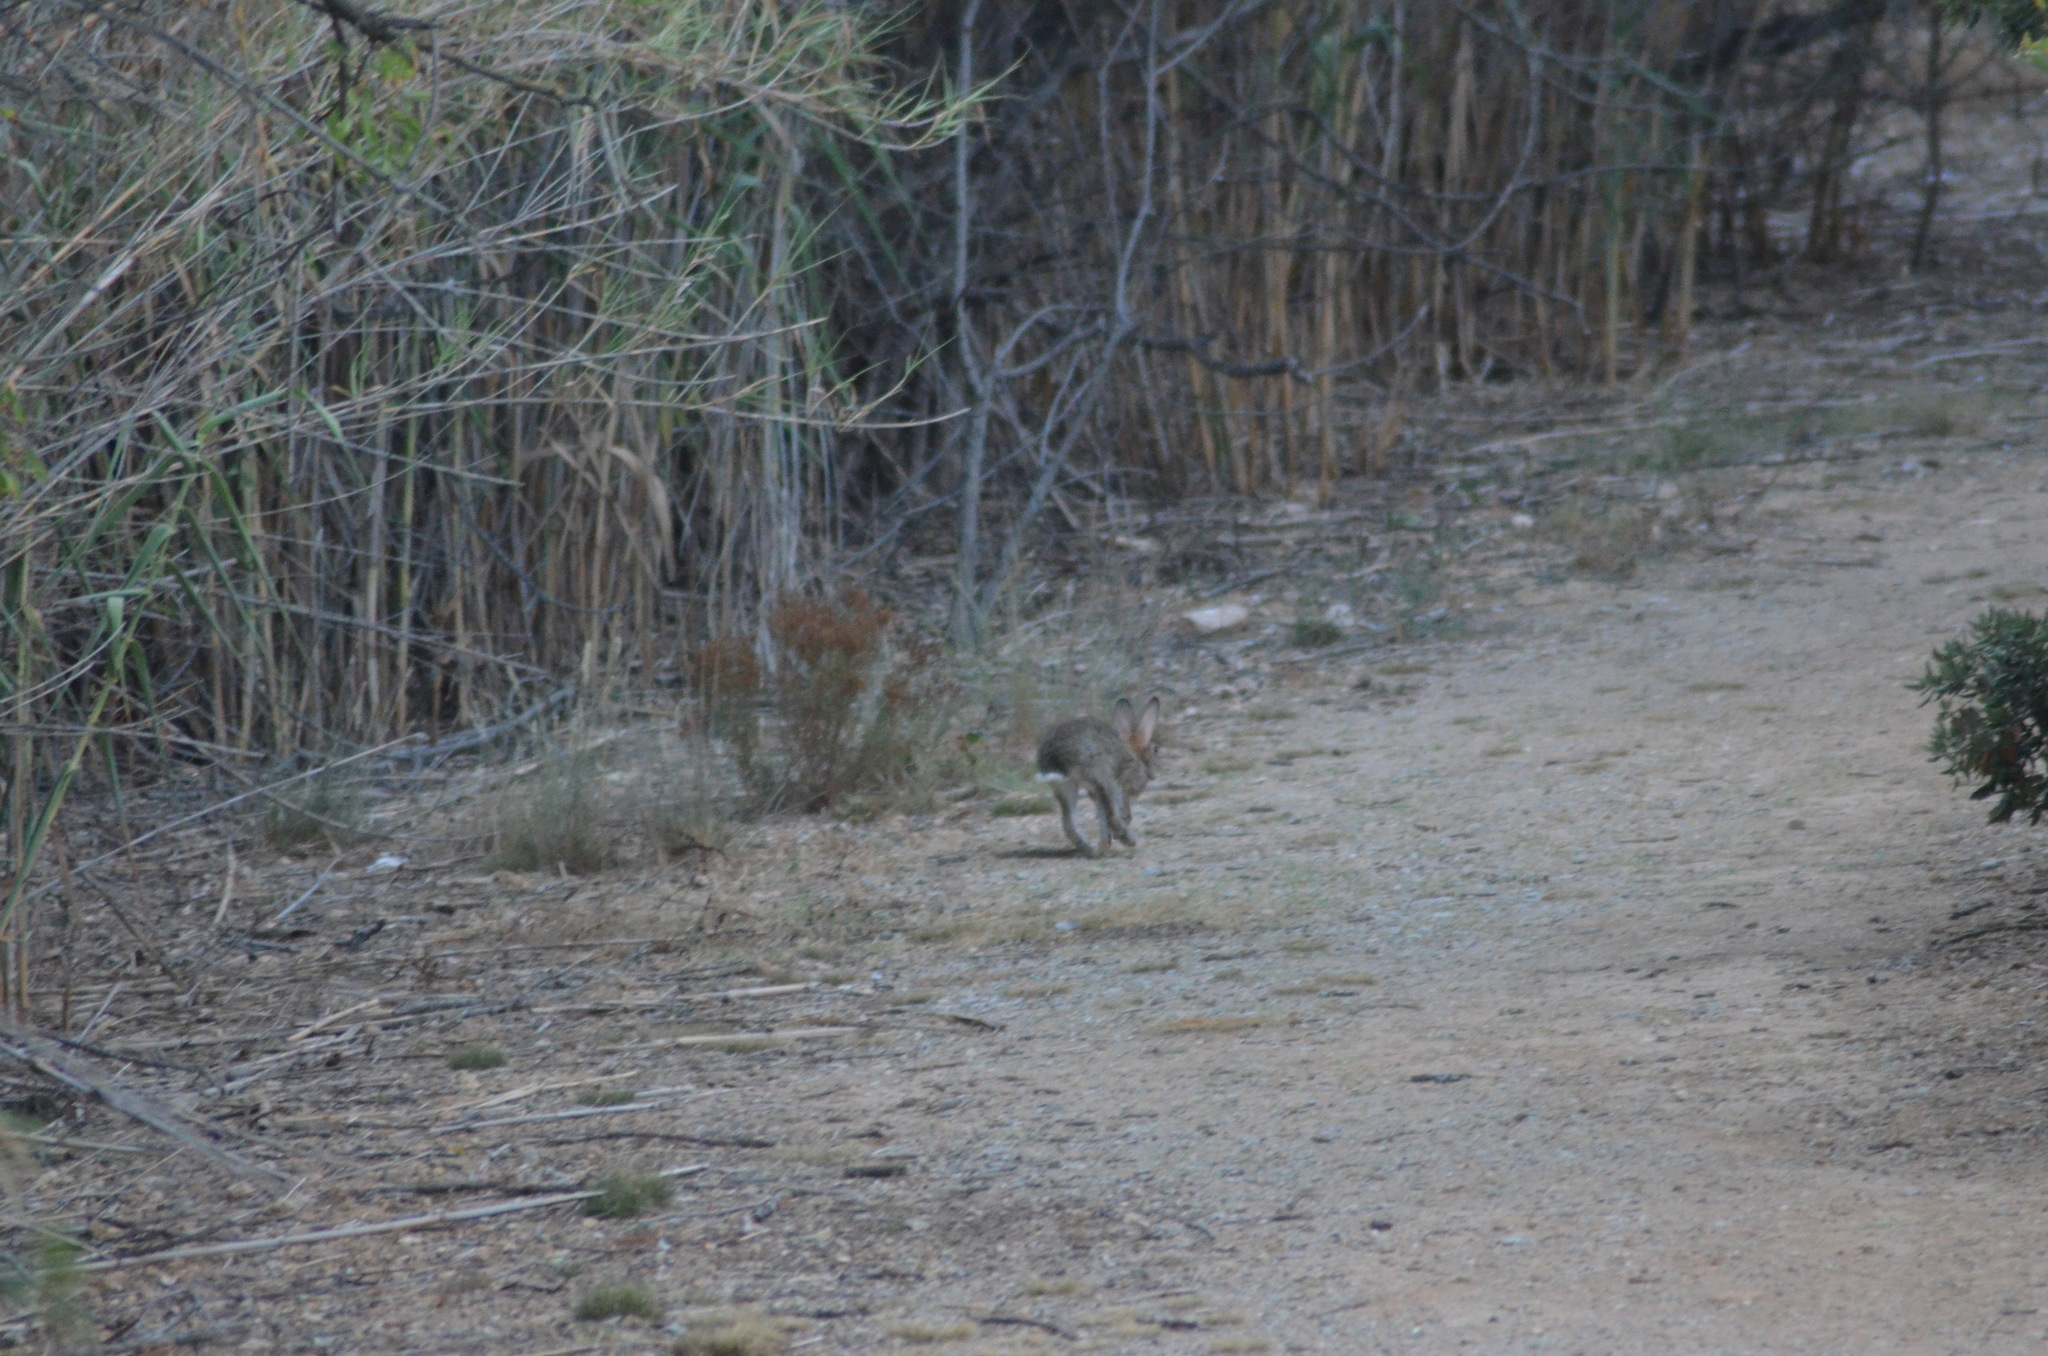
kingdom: Animalia
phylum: Chordata
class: Mammalia
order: Lagomorpha
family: Leporidae
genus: Oryctolagus
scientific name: Oryctolagus cuniculus
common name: European rabbit
